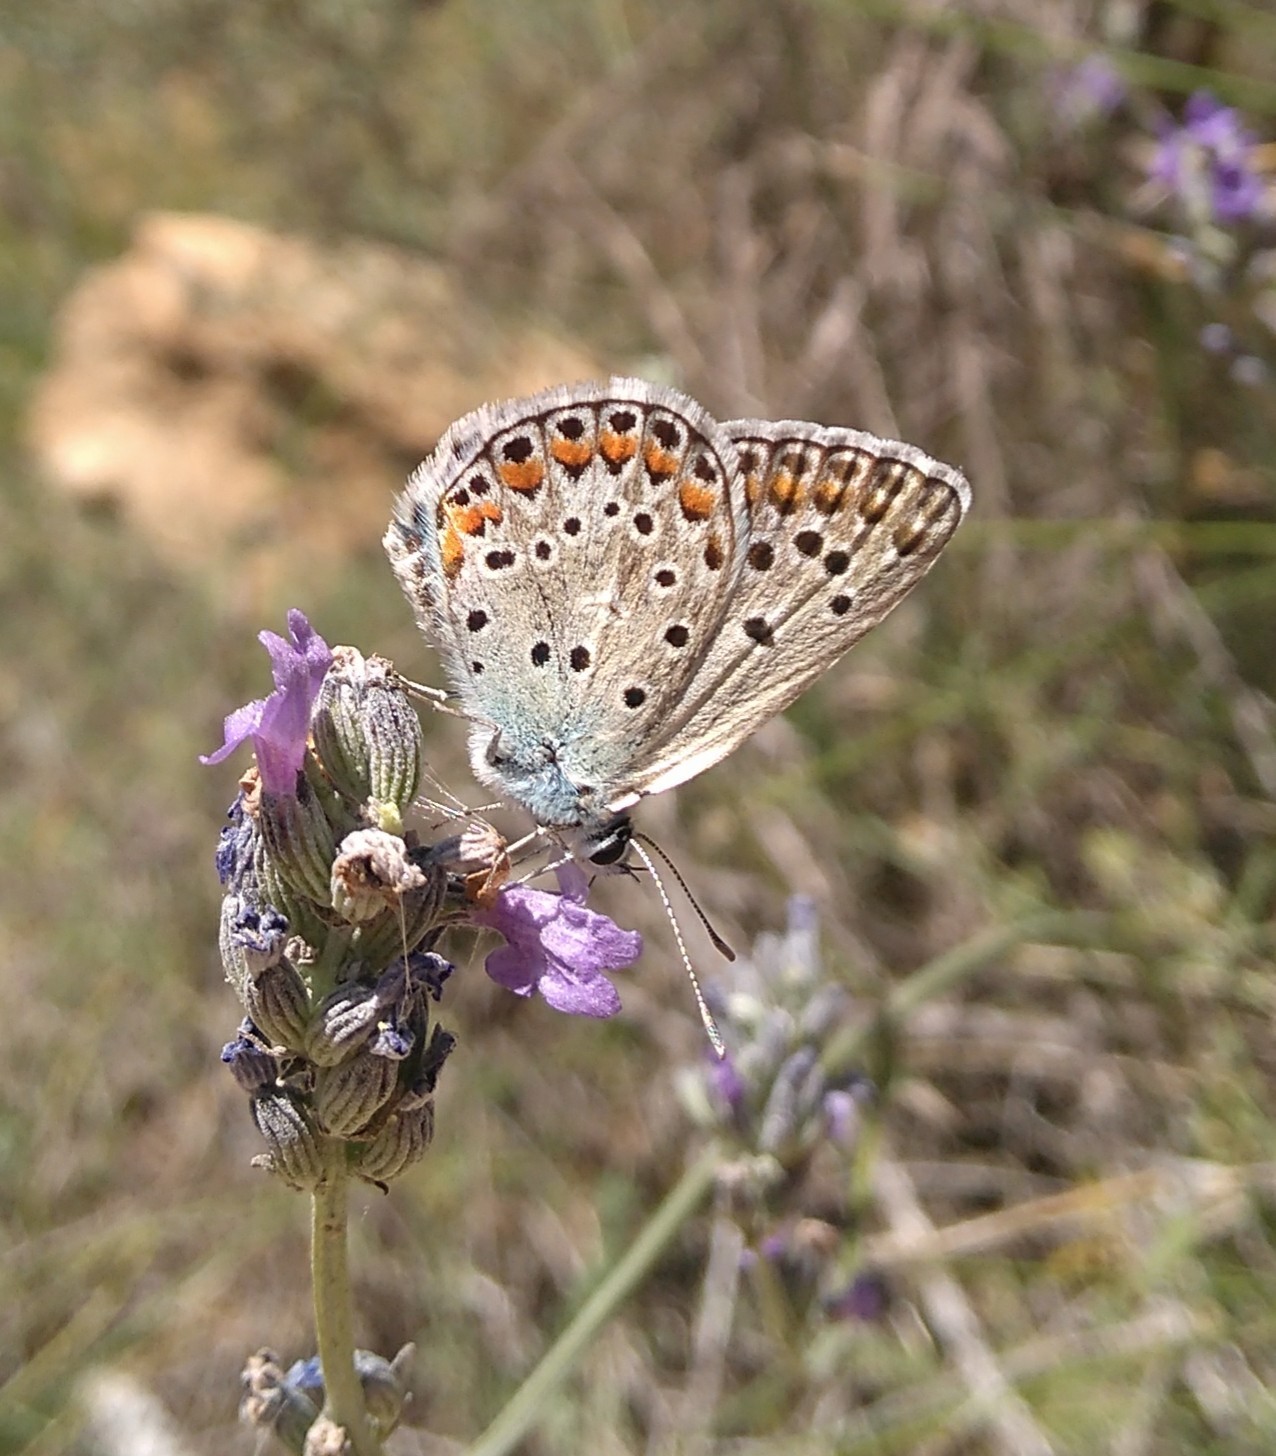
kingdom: Animalia
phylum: Arthropoda
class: Insecta
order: Lepidoptera
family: Lycaenidae
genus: Plebicula
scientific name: Plebicula escheri
